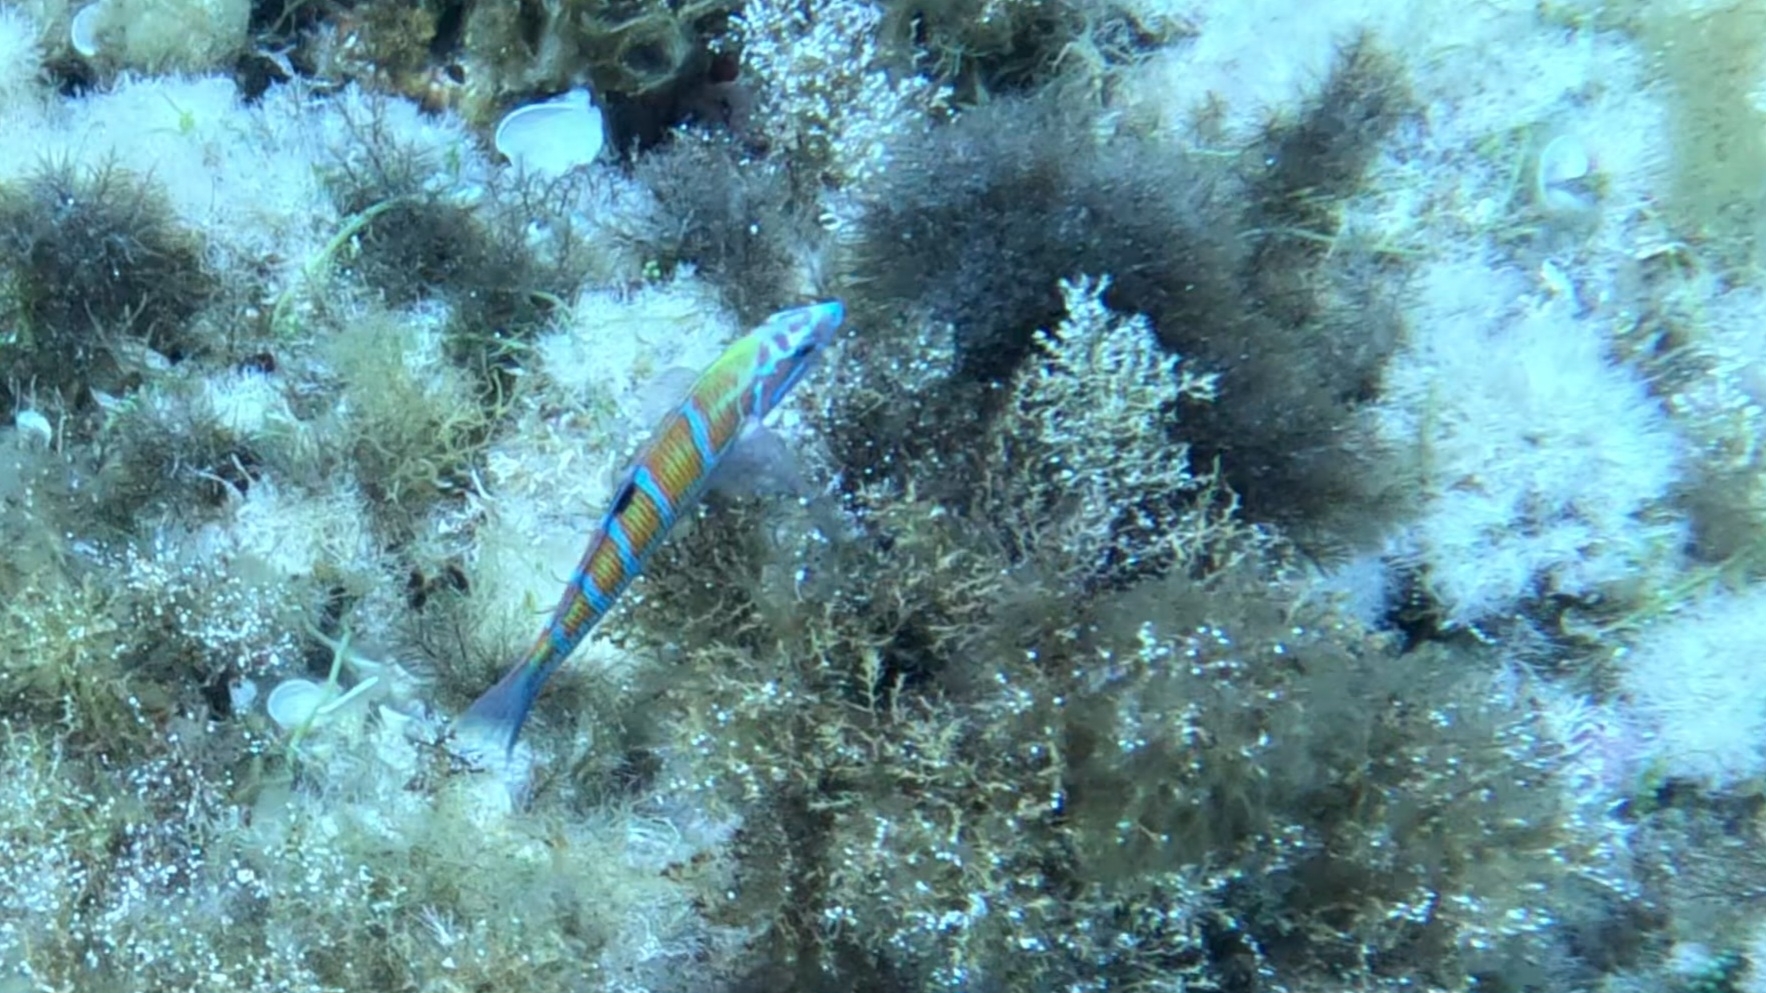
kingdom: Animalia
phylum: Chordata
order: Perciformes
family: Labridae
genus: Thalassoma
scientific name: Thalassoma pavo
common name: Ornate wrasse
